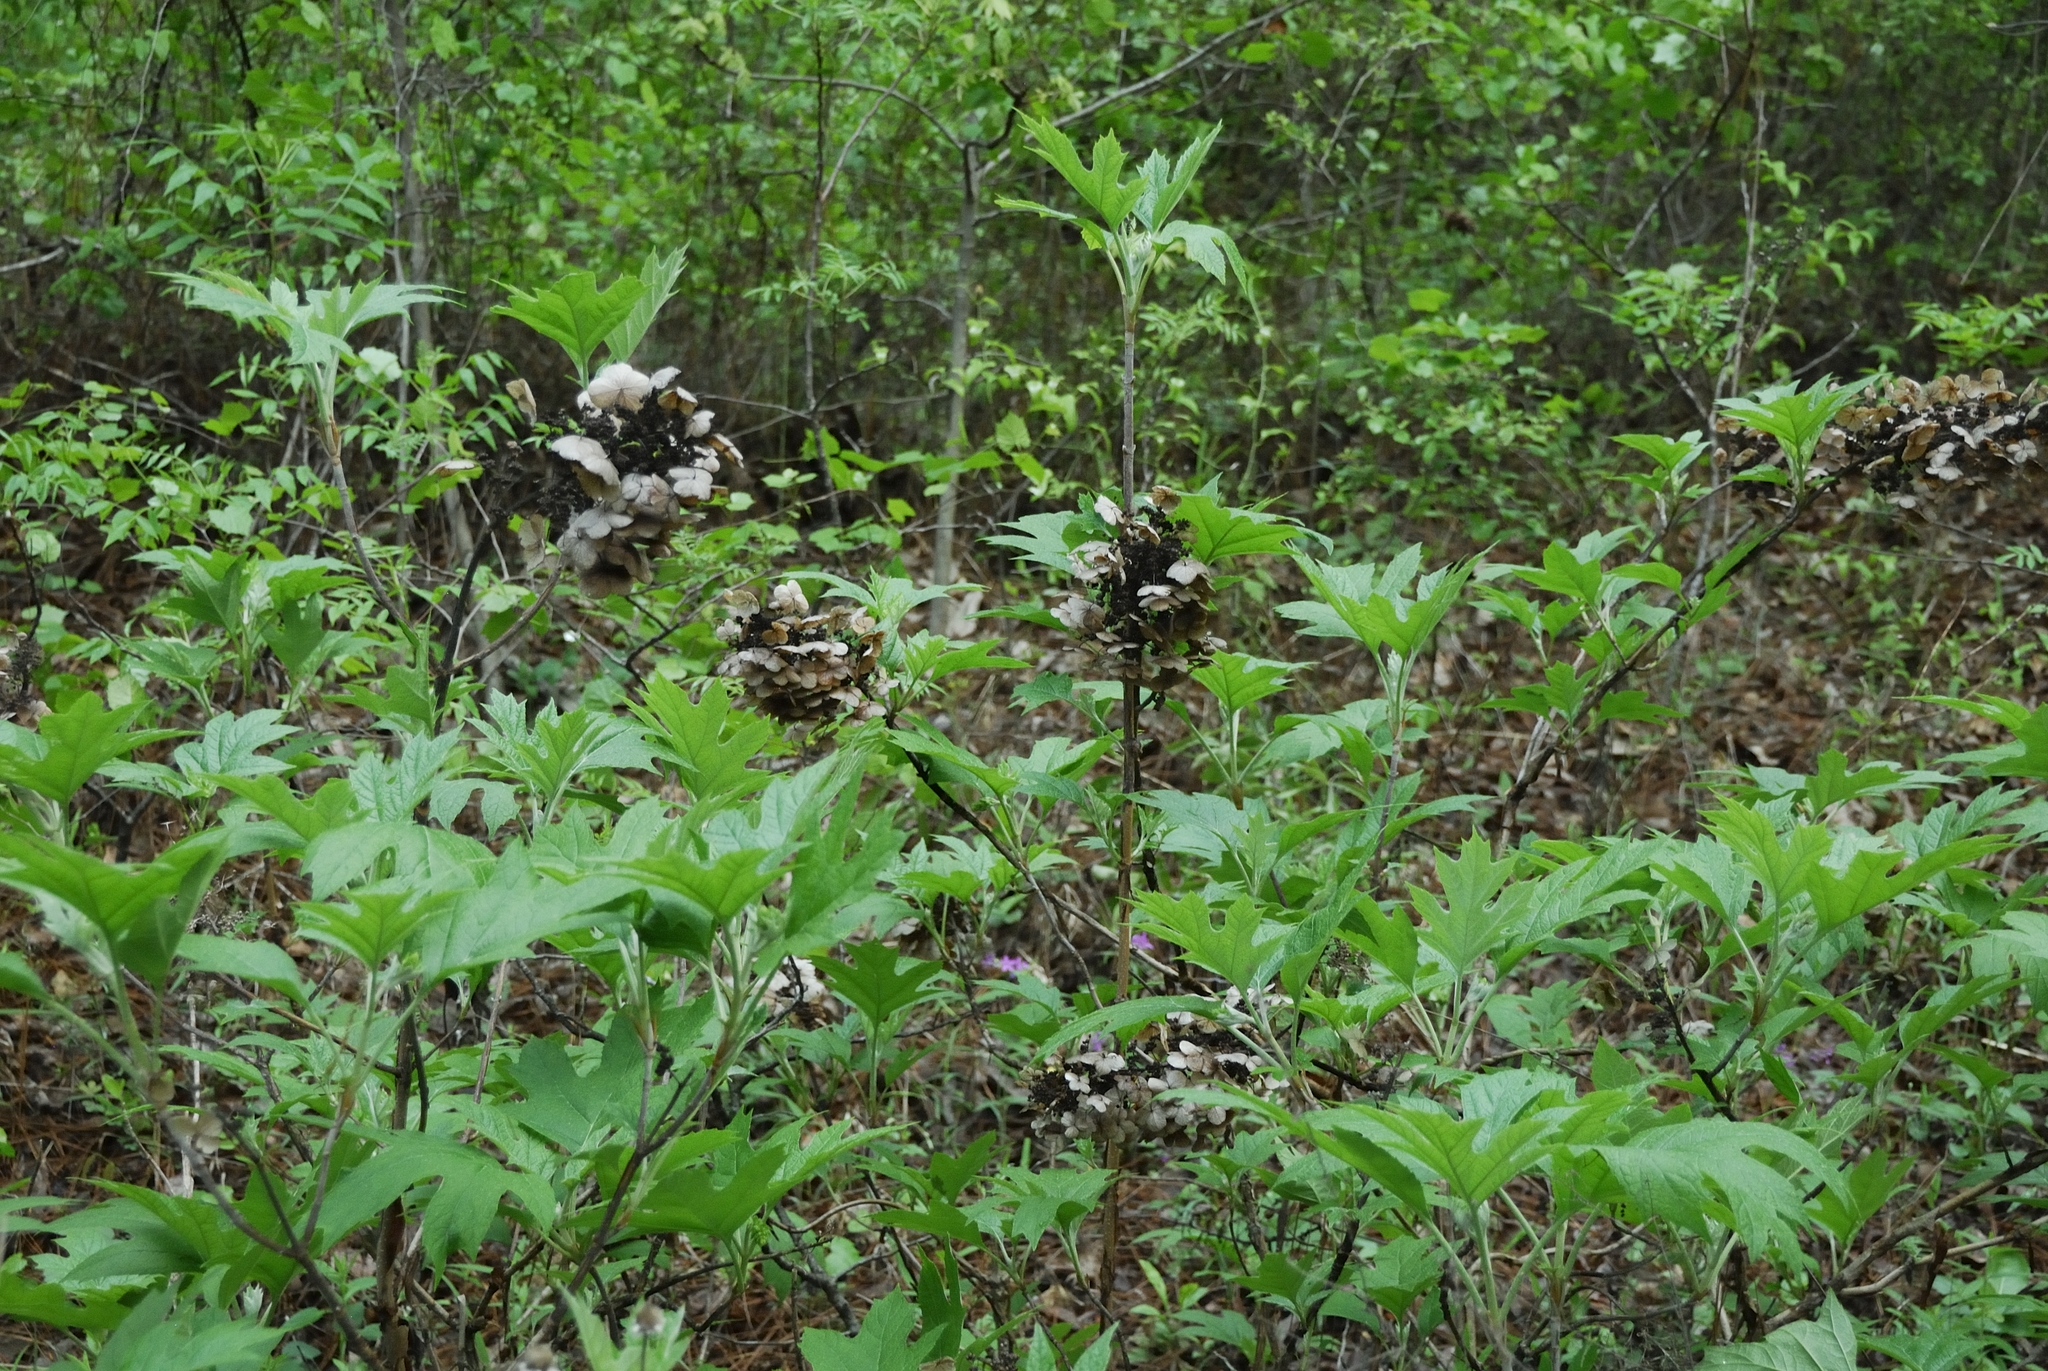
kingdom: Plantae
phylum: Tracheophyta
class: Magnoliopsida
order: Cornales
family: Hydrangeaceae
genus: Hydrangea
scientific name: Hydrangea quercifolia
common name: Oak-leaf hydrangea
